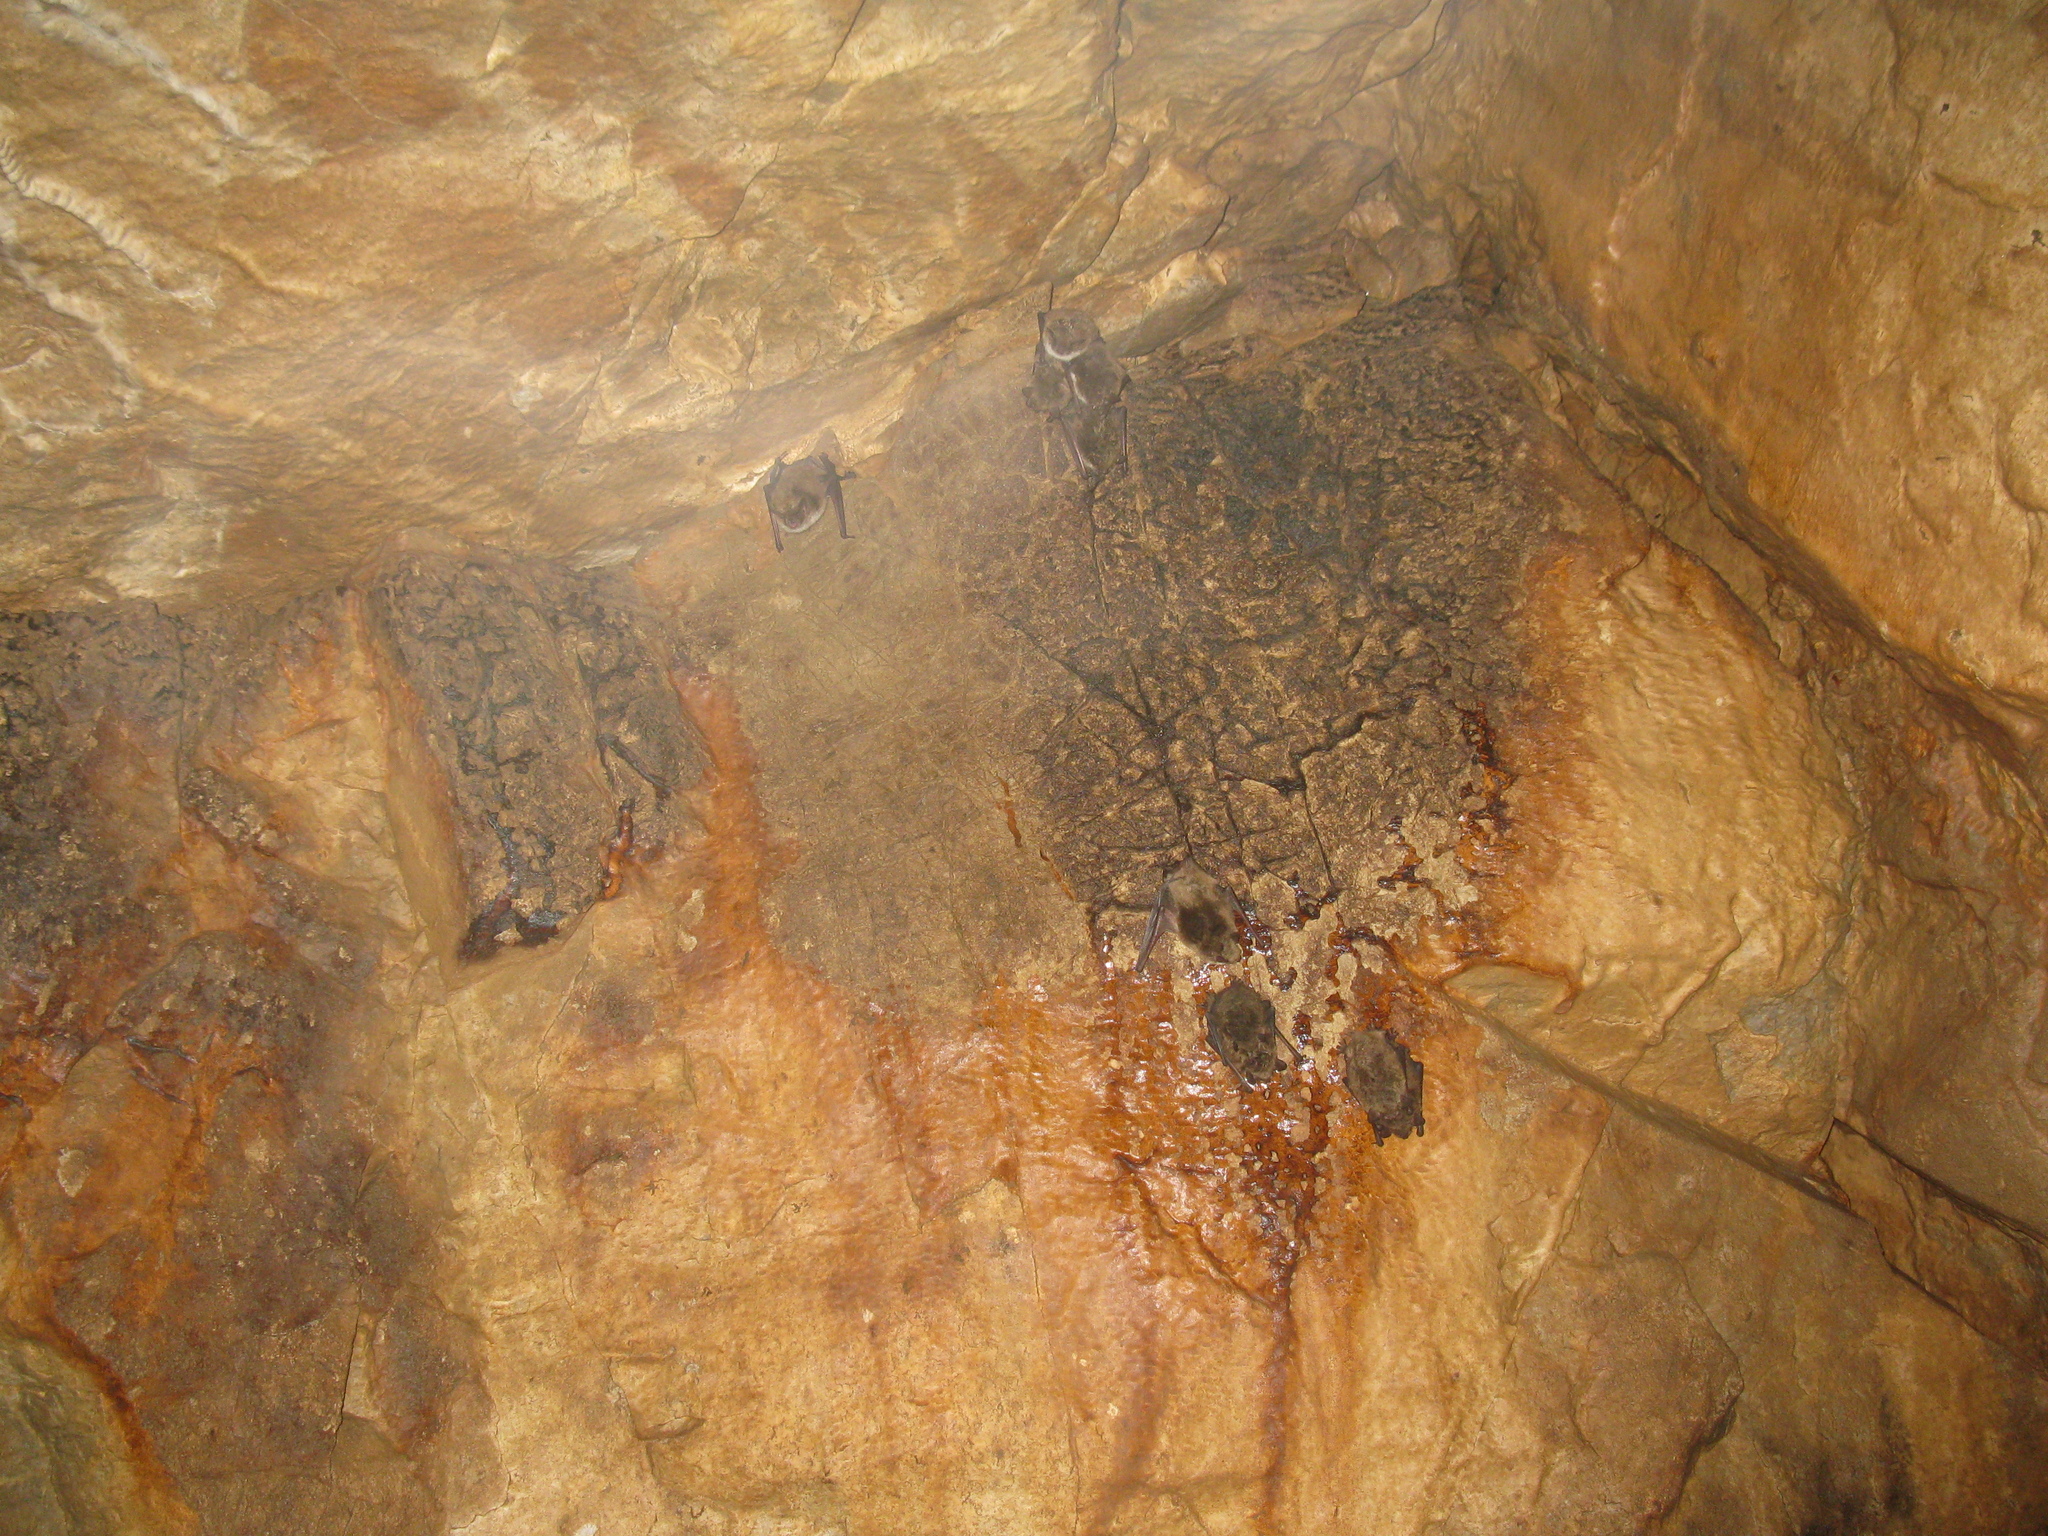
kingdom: Animalia
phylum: Chordata
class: Mammalia
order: Chiroptera
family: Vespertilionidae
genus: Myotis
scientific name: Myotis dasycneme
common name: Pond bat
